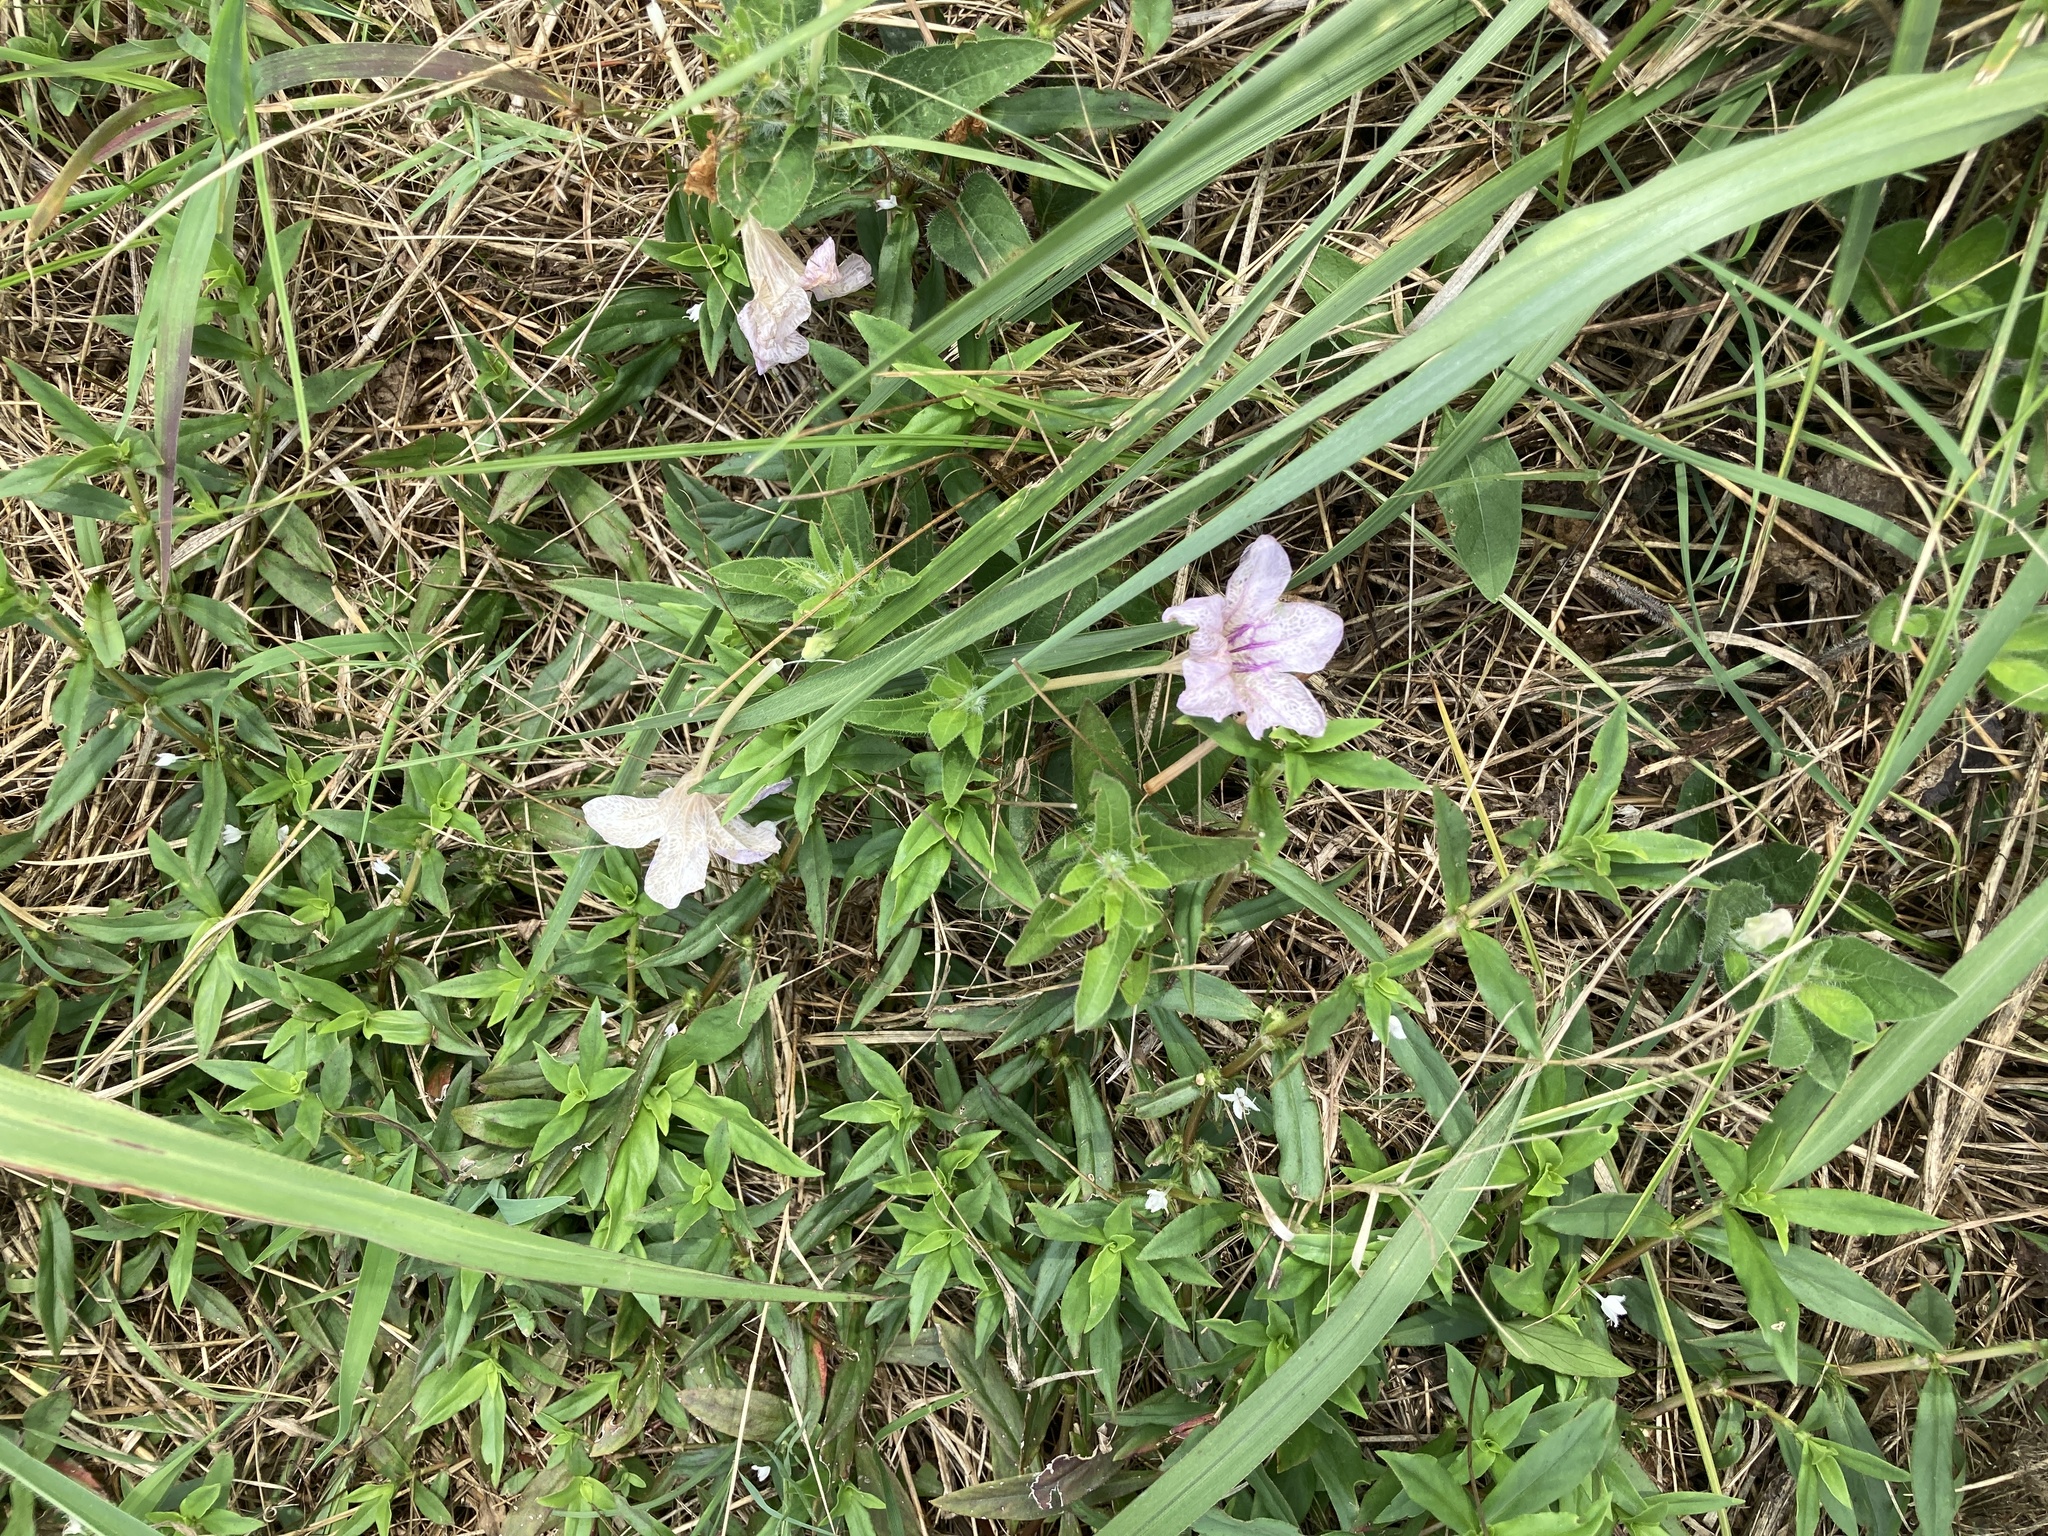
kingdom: Plantae
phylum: Tracheophyta
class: Magnoliopsida
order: Lamiales
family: Acanthaceae
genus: Ruellia
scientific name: Ruellia humilis
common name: Fringe-leaf ruellia
